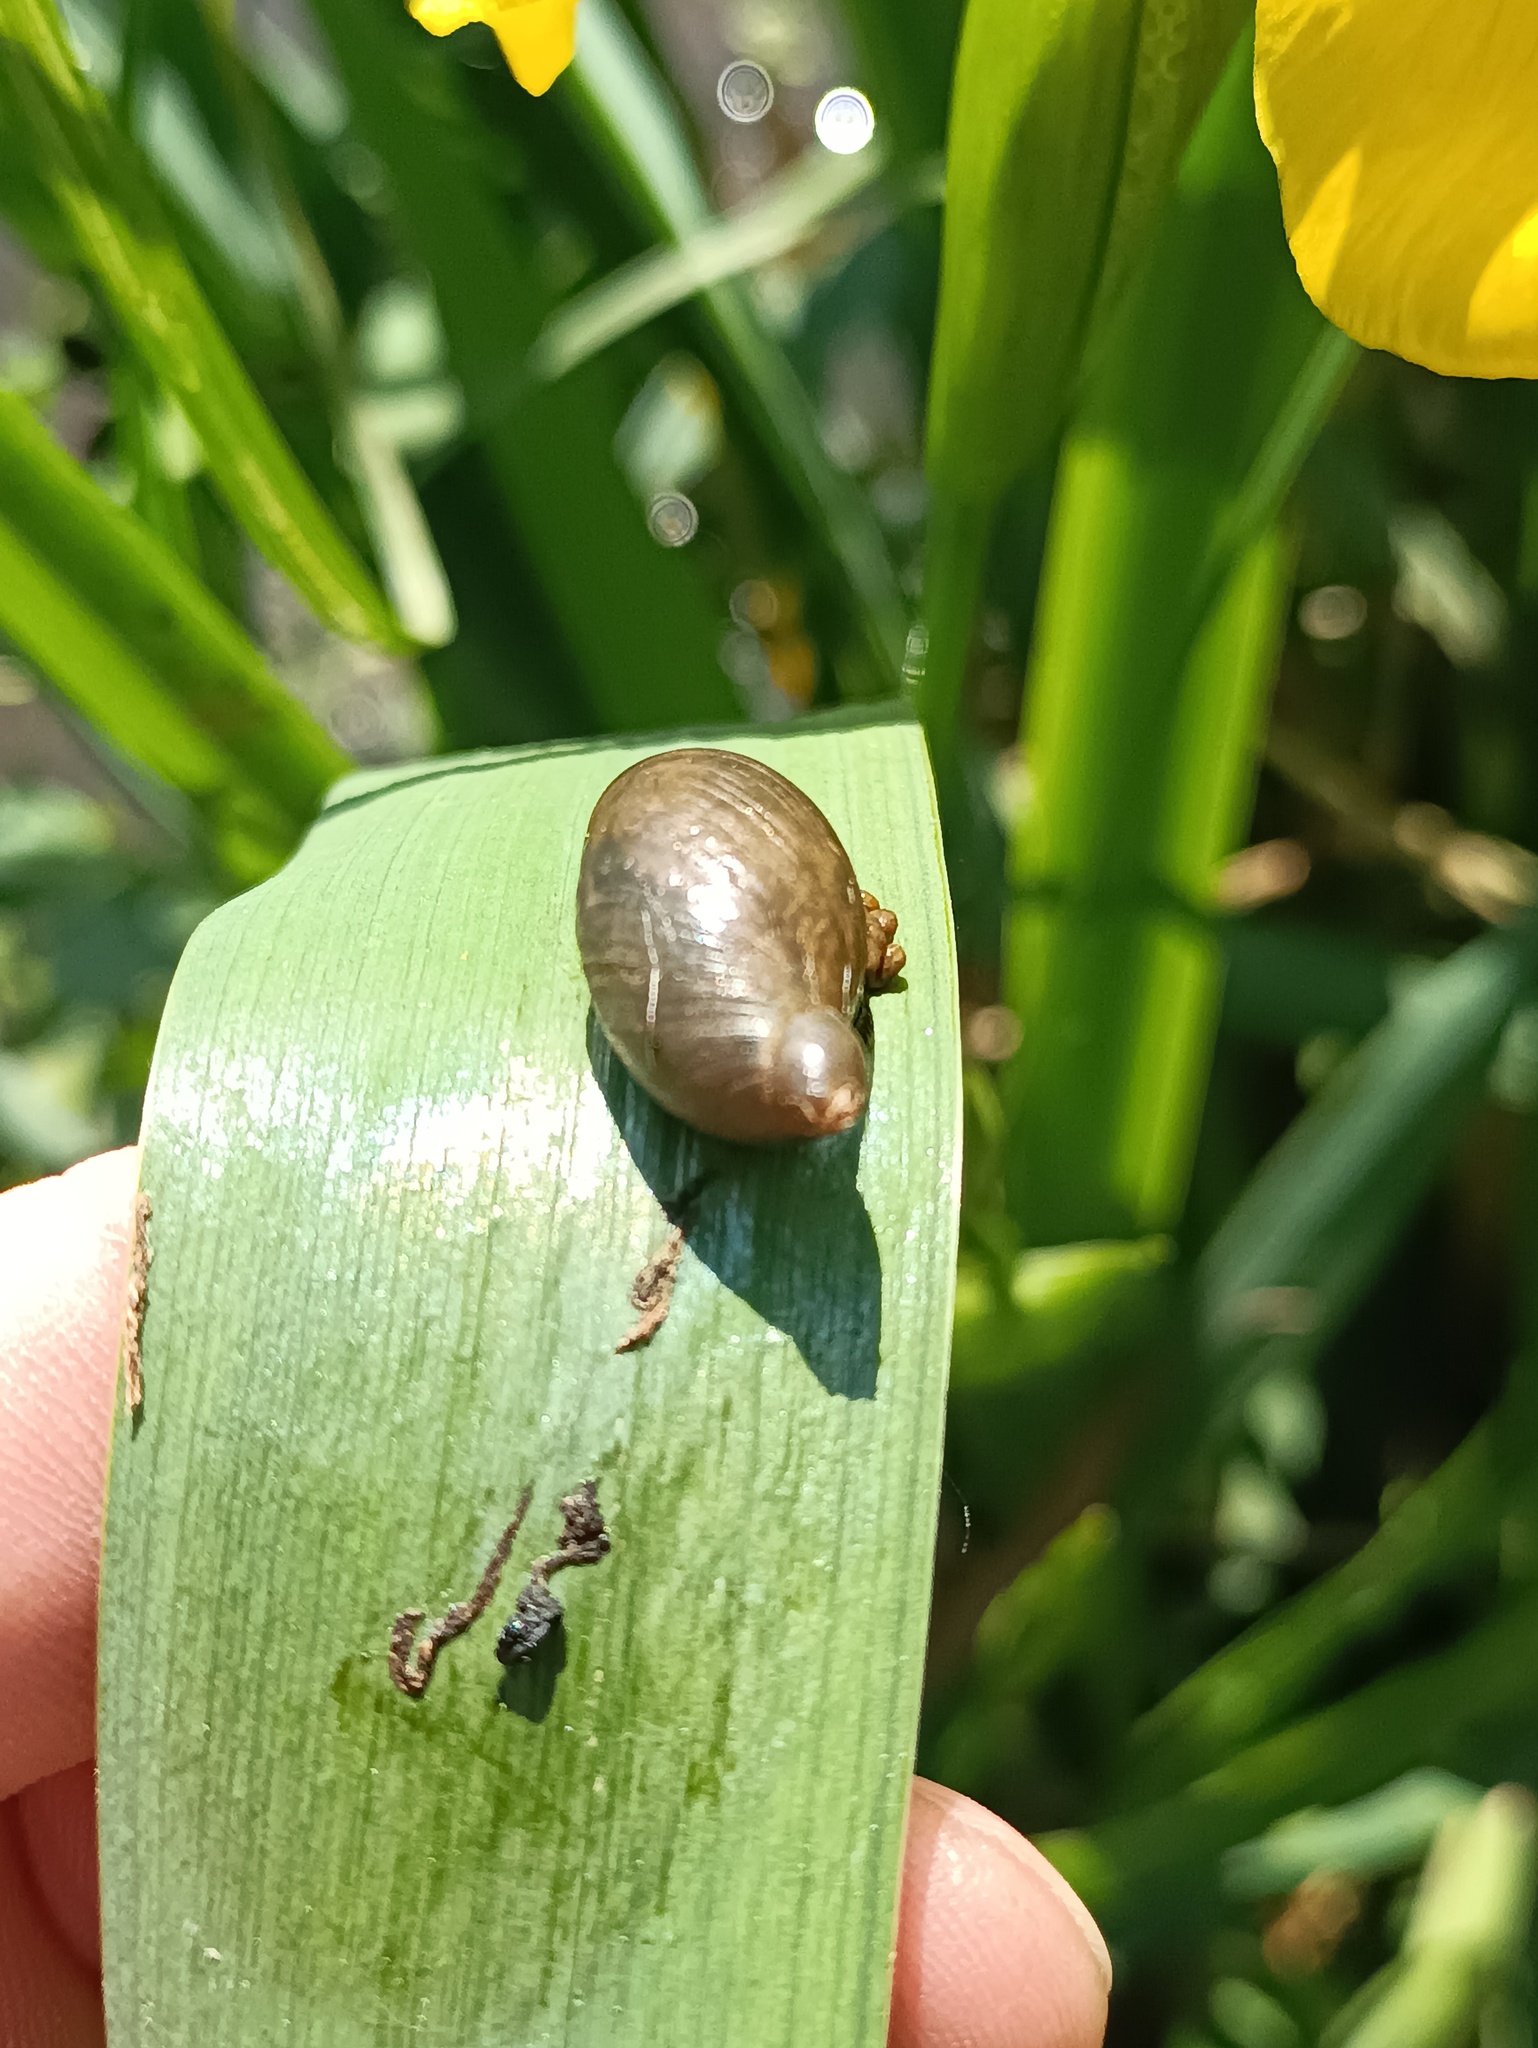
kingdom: Animalia
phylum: Mollusca
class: Gastropoda
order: Stylommatophora
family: Succineidae
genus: Succinea
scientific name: Succinea putris
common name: European ambersnail
